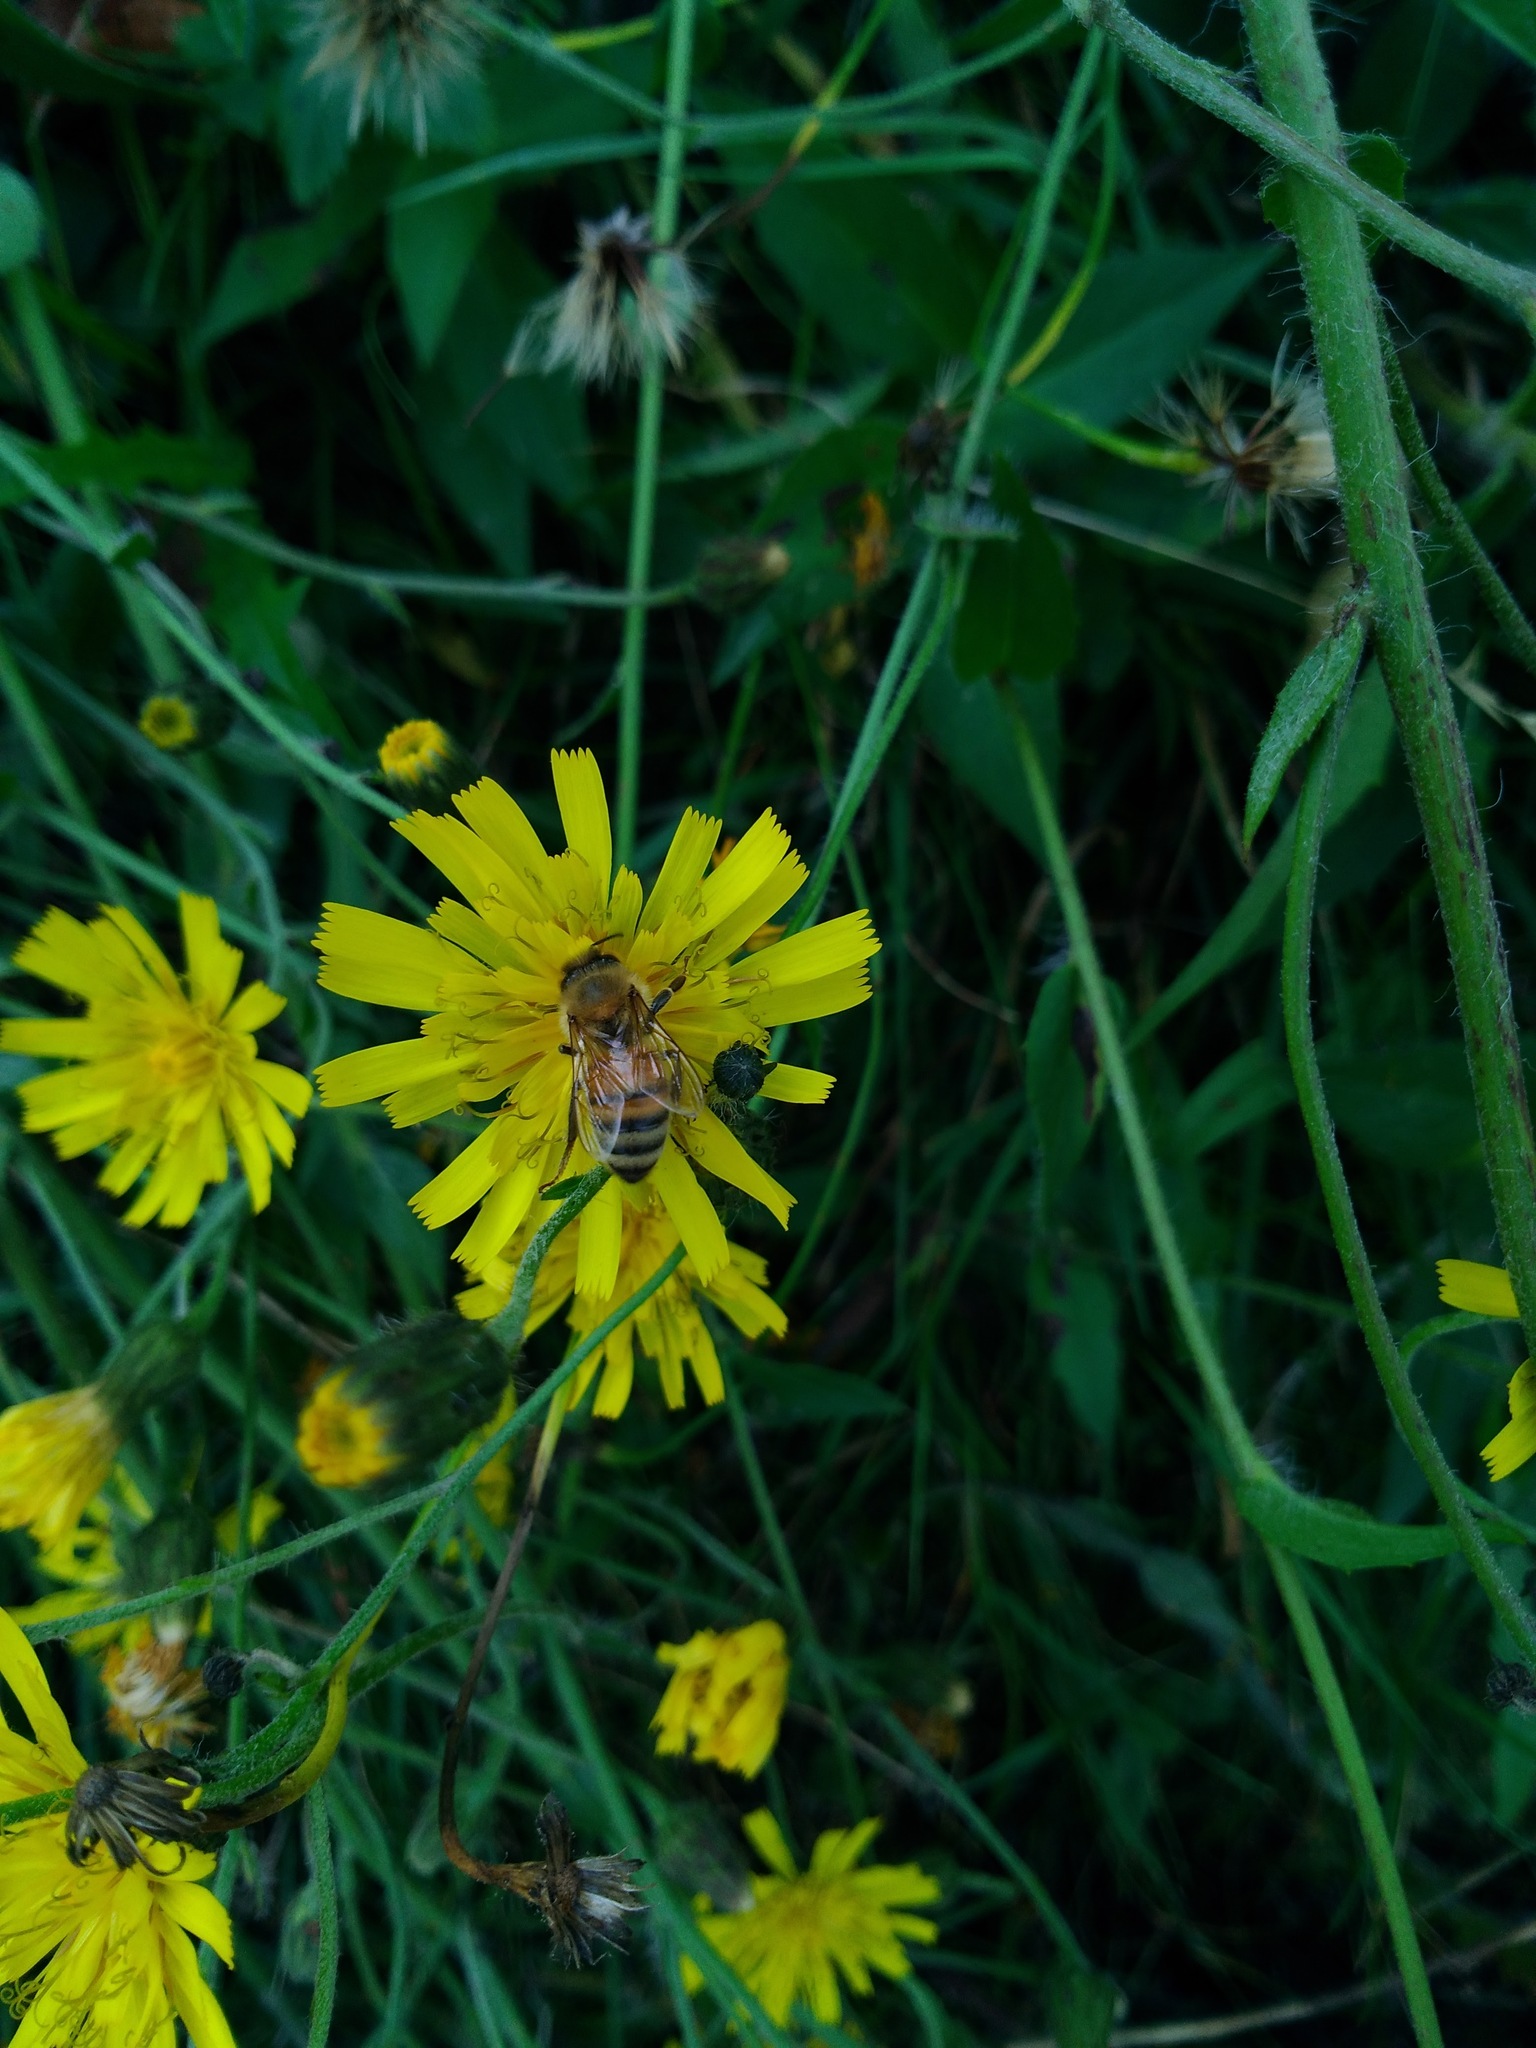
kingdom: Animalia
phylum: Arthropoda
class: Insecta
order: Hymenoptera
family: Apidae
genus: Apis
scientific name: Apis mellifera
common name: Honey bee
